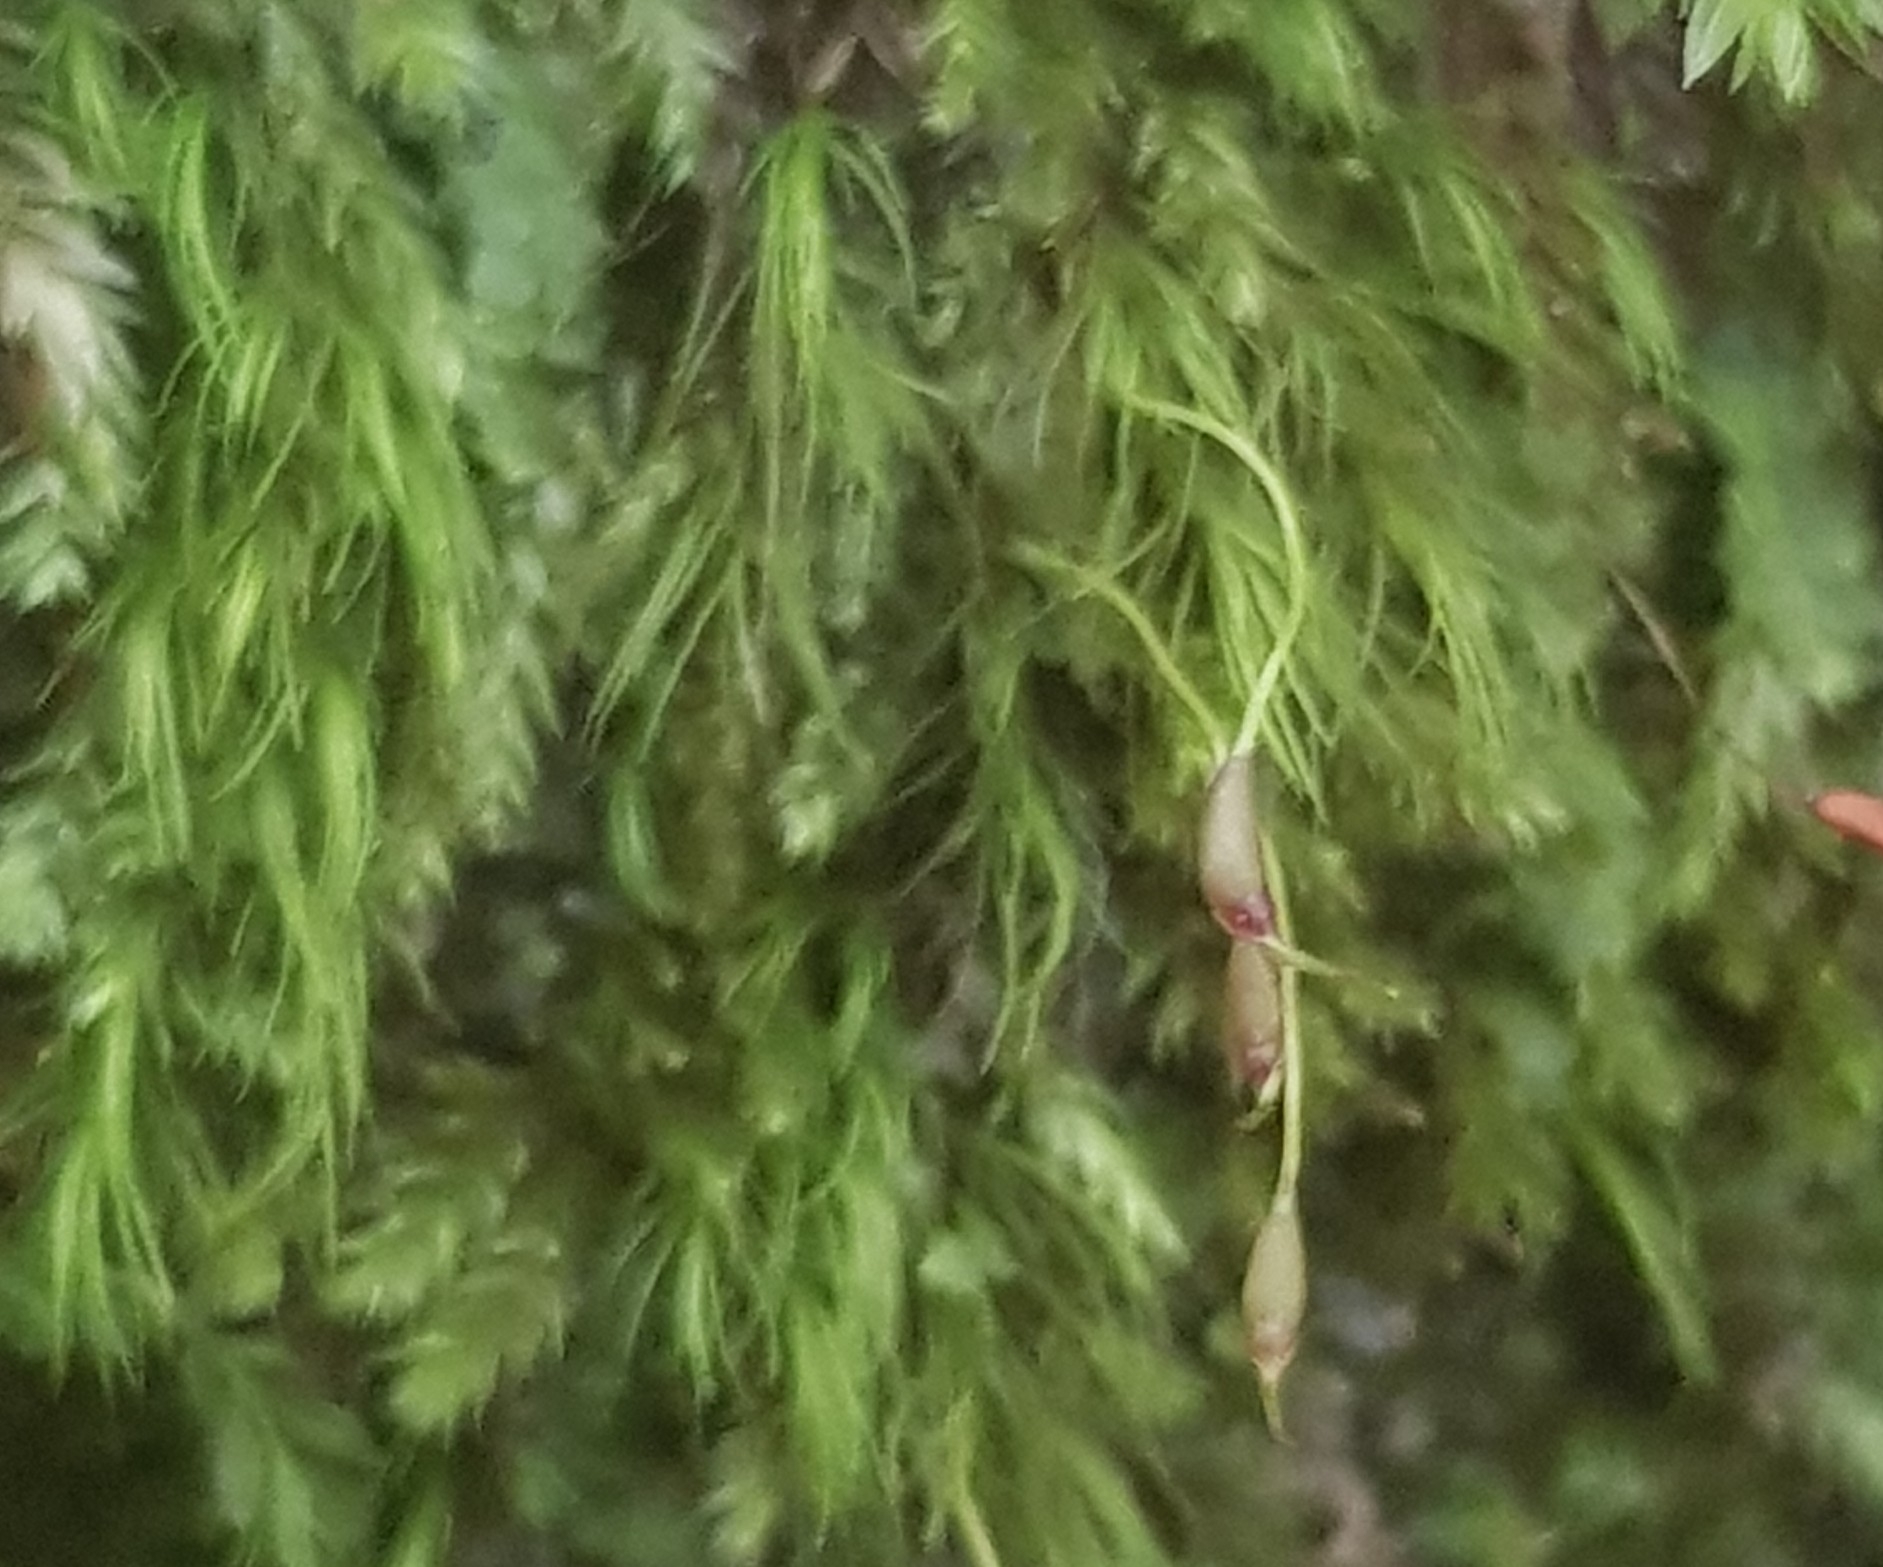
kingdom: Plantae
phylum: Bryophyta
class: Bryopsida
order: Dicranales
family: Dicranellaceae
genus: Dicranella
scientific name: Dicranella heteromalla
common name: Silky forklet moss
